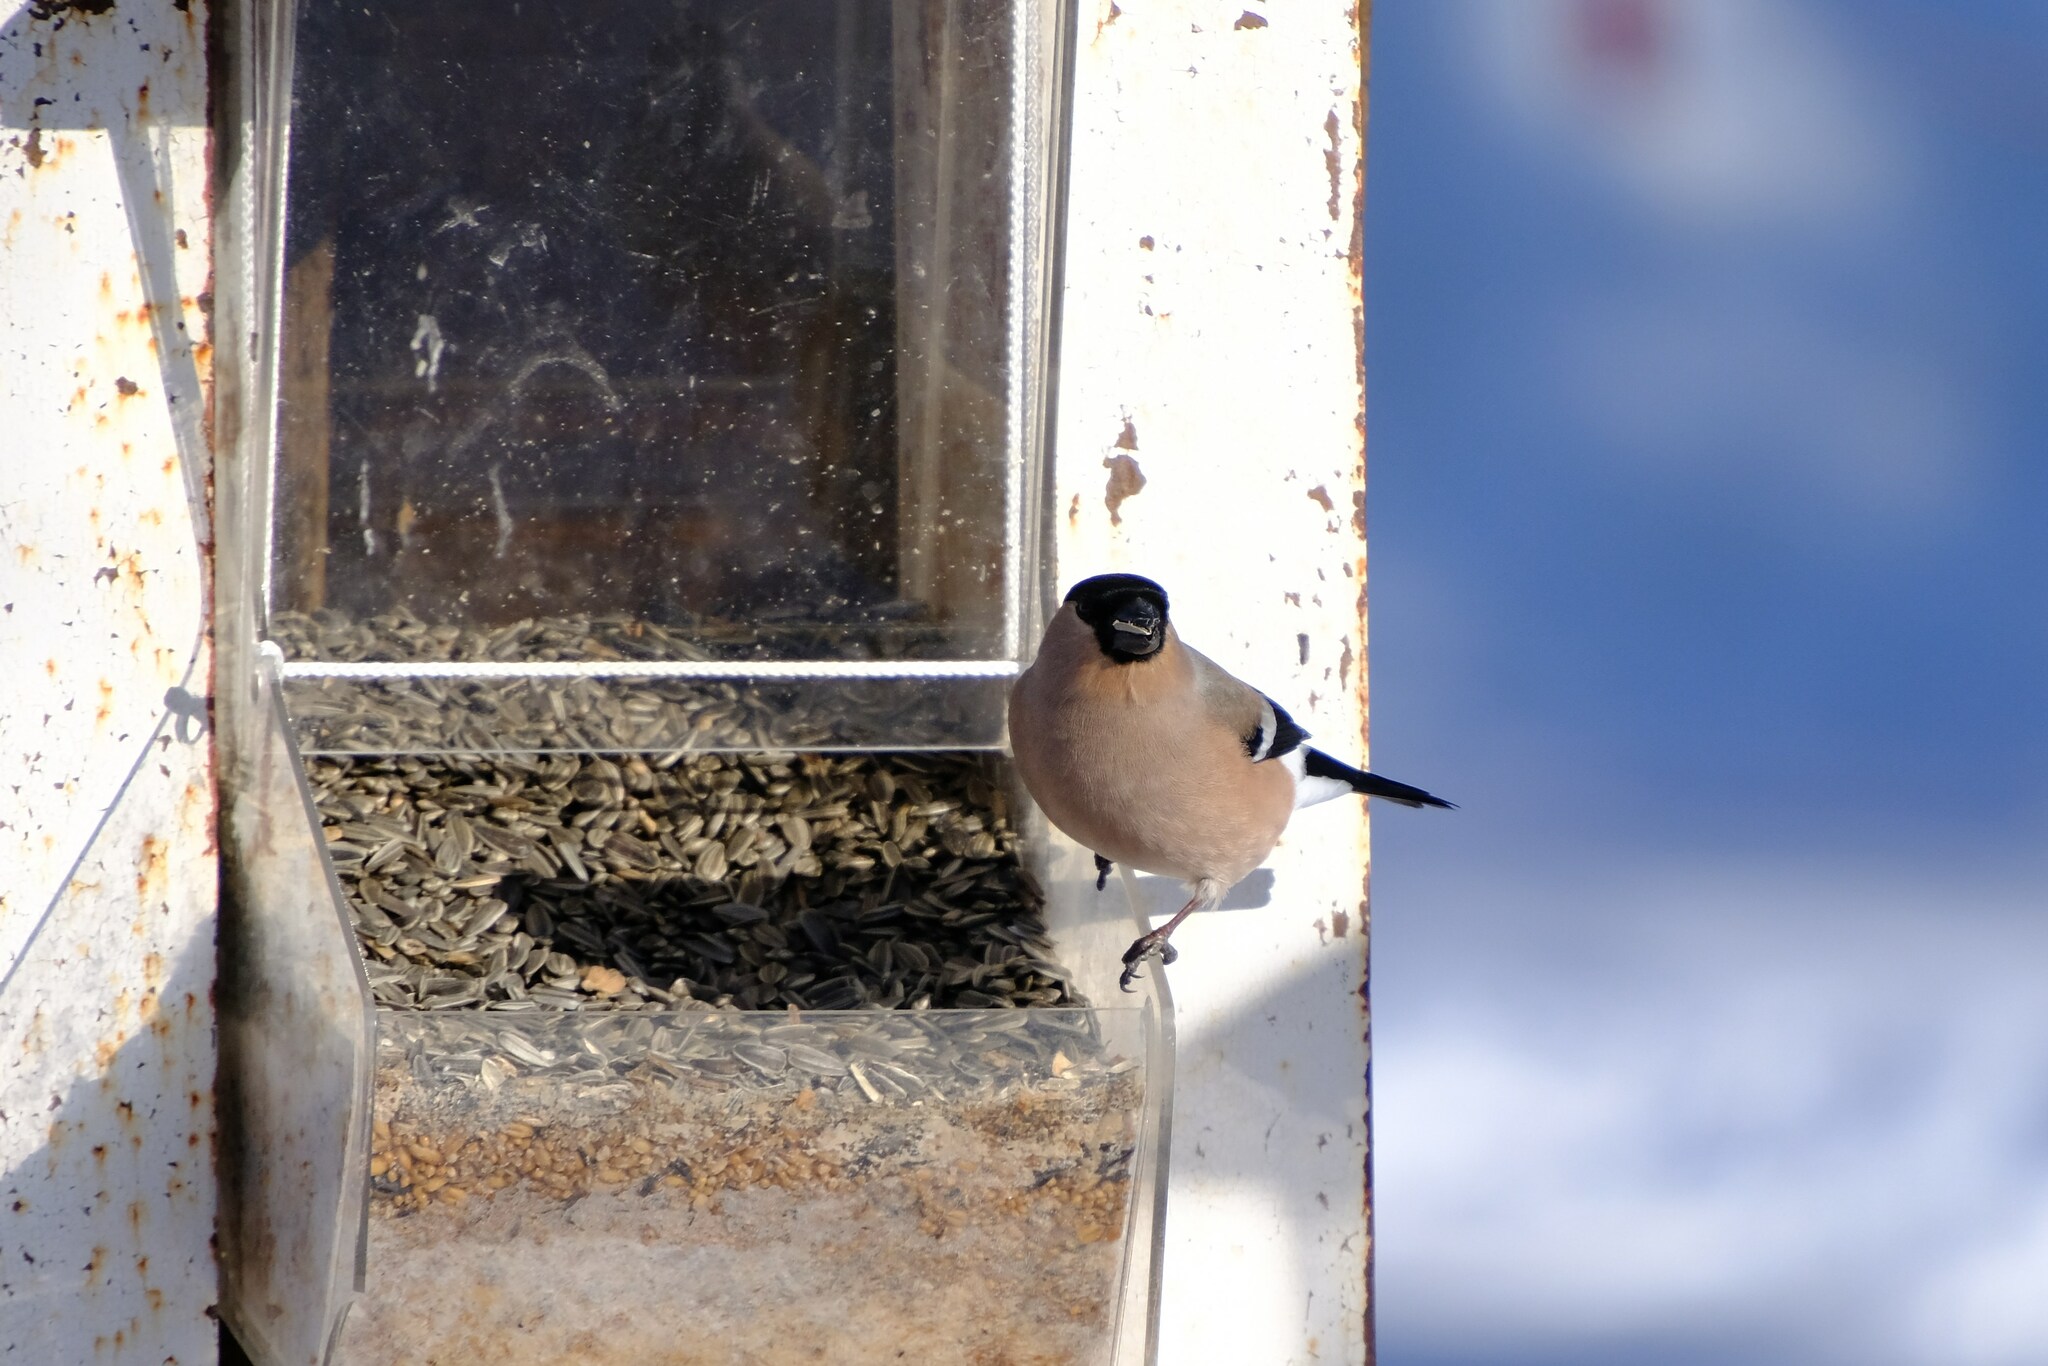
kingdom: Animalia
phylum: Chordata
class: Aves
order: Passeriformes
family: Fringillidae
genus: Pyrrhula
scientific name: Pyrrhula pyrrhula
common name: Eurasian bullfinch
